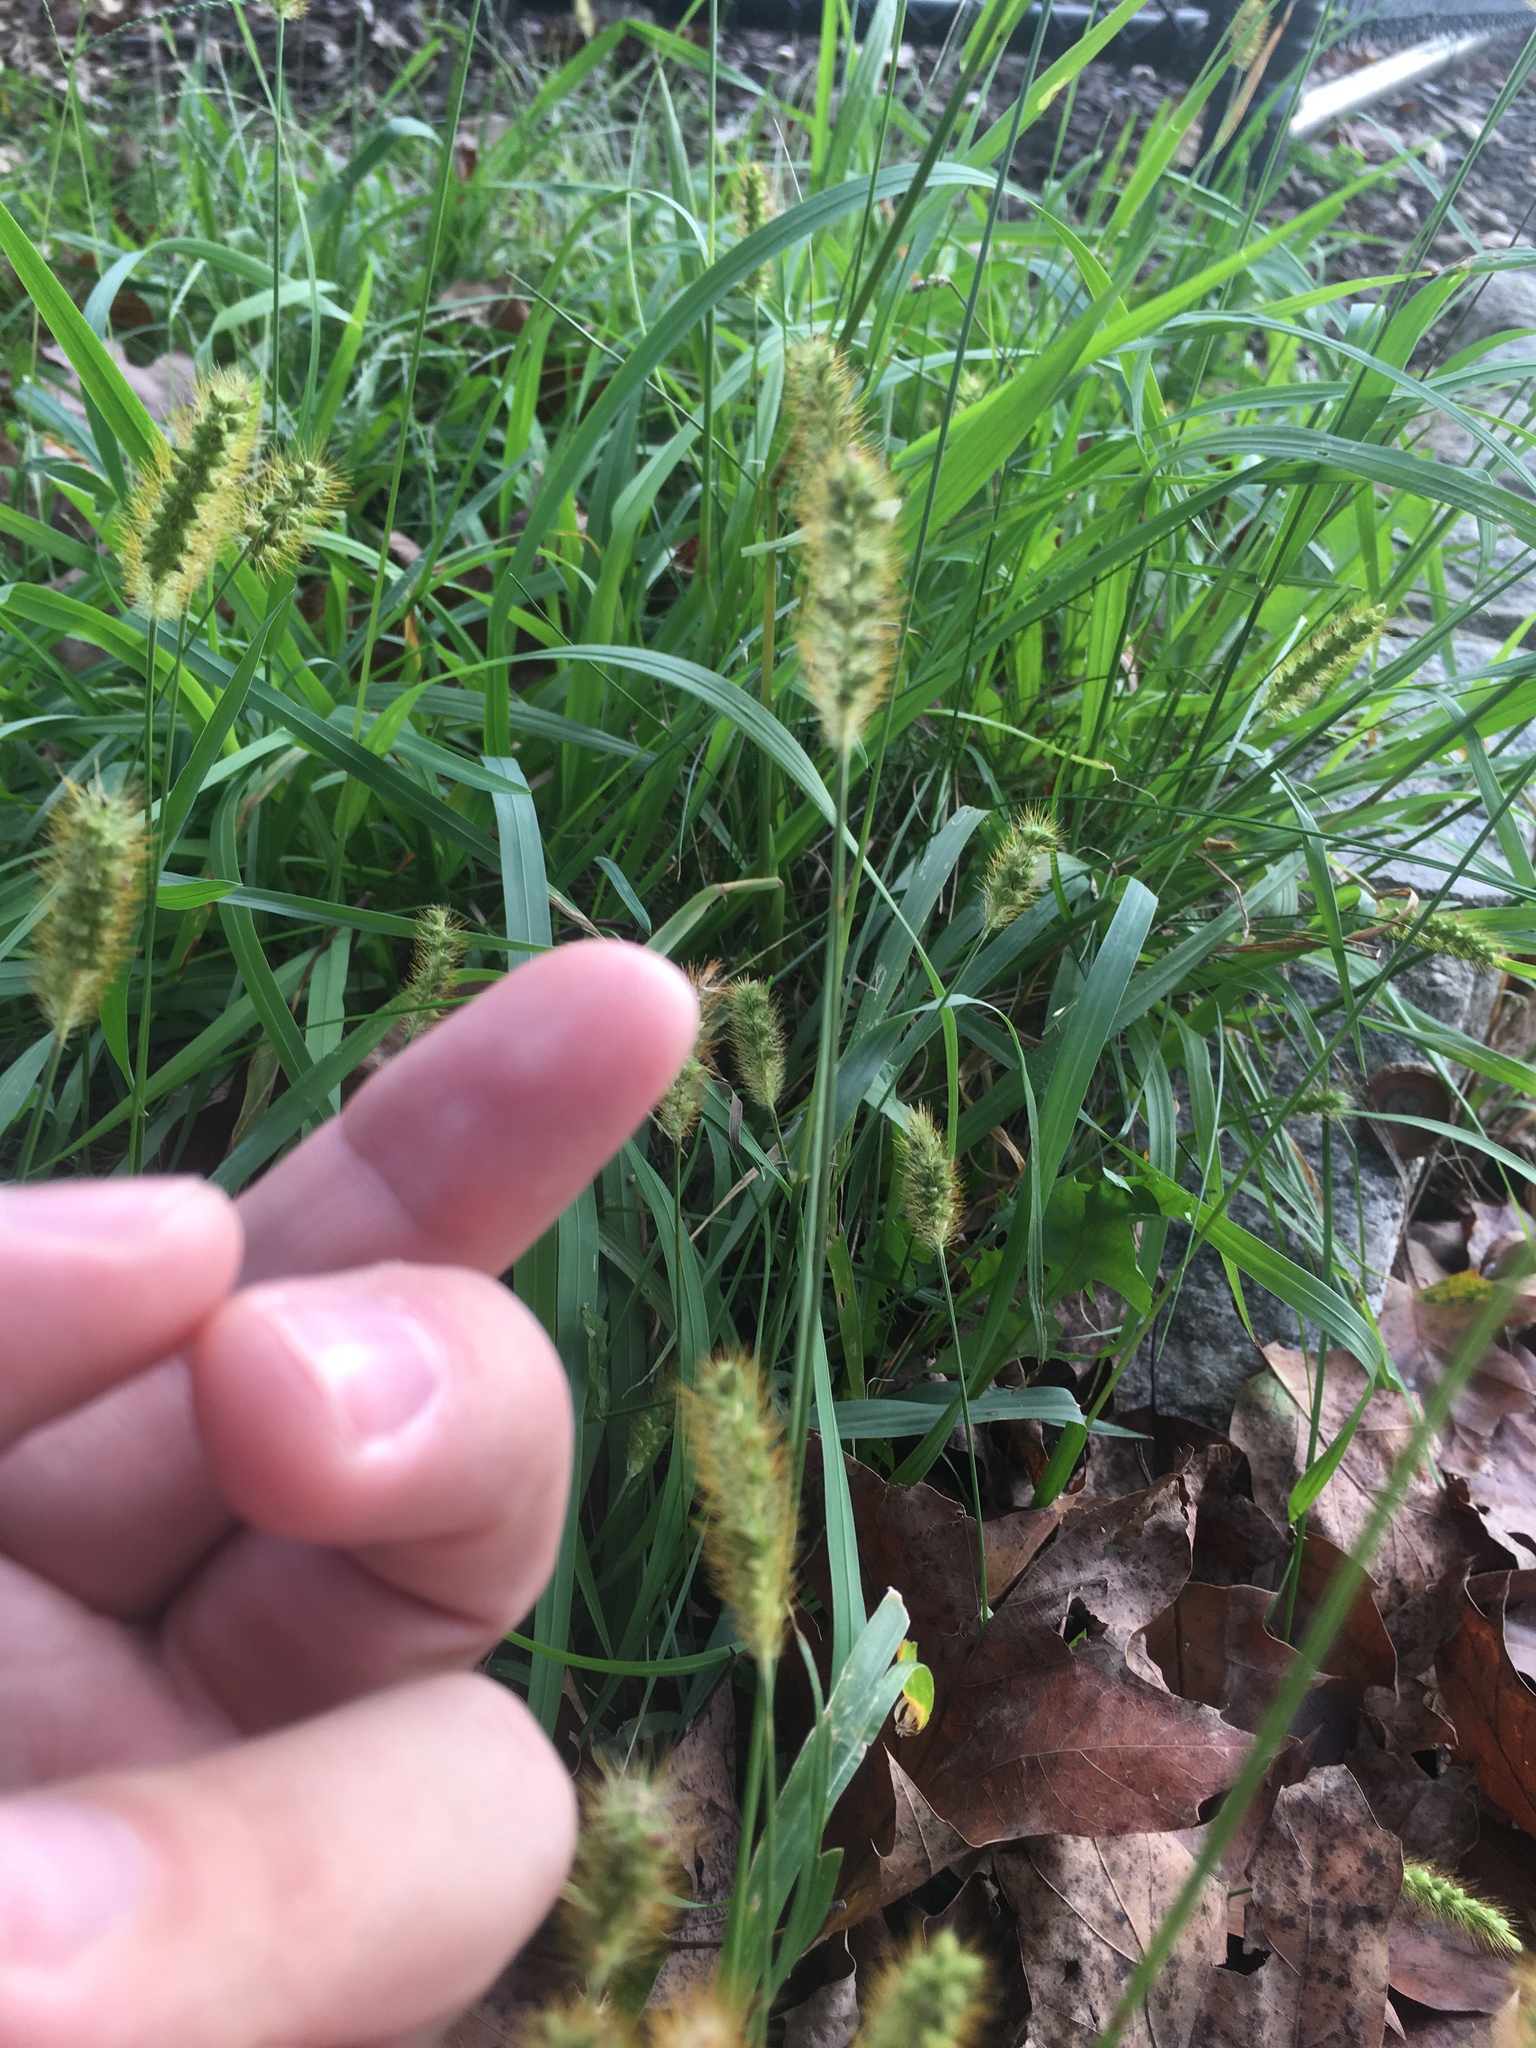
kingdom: Plantae
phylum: Tracheophyta
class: Liliopsida
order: Poales
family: Poaceae
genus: Setaria
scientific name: Setaria pumila
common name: Yellow bristle-grass
